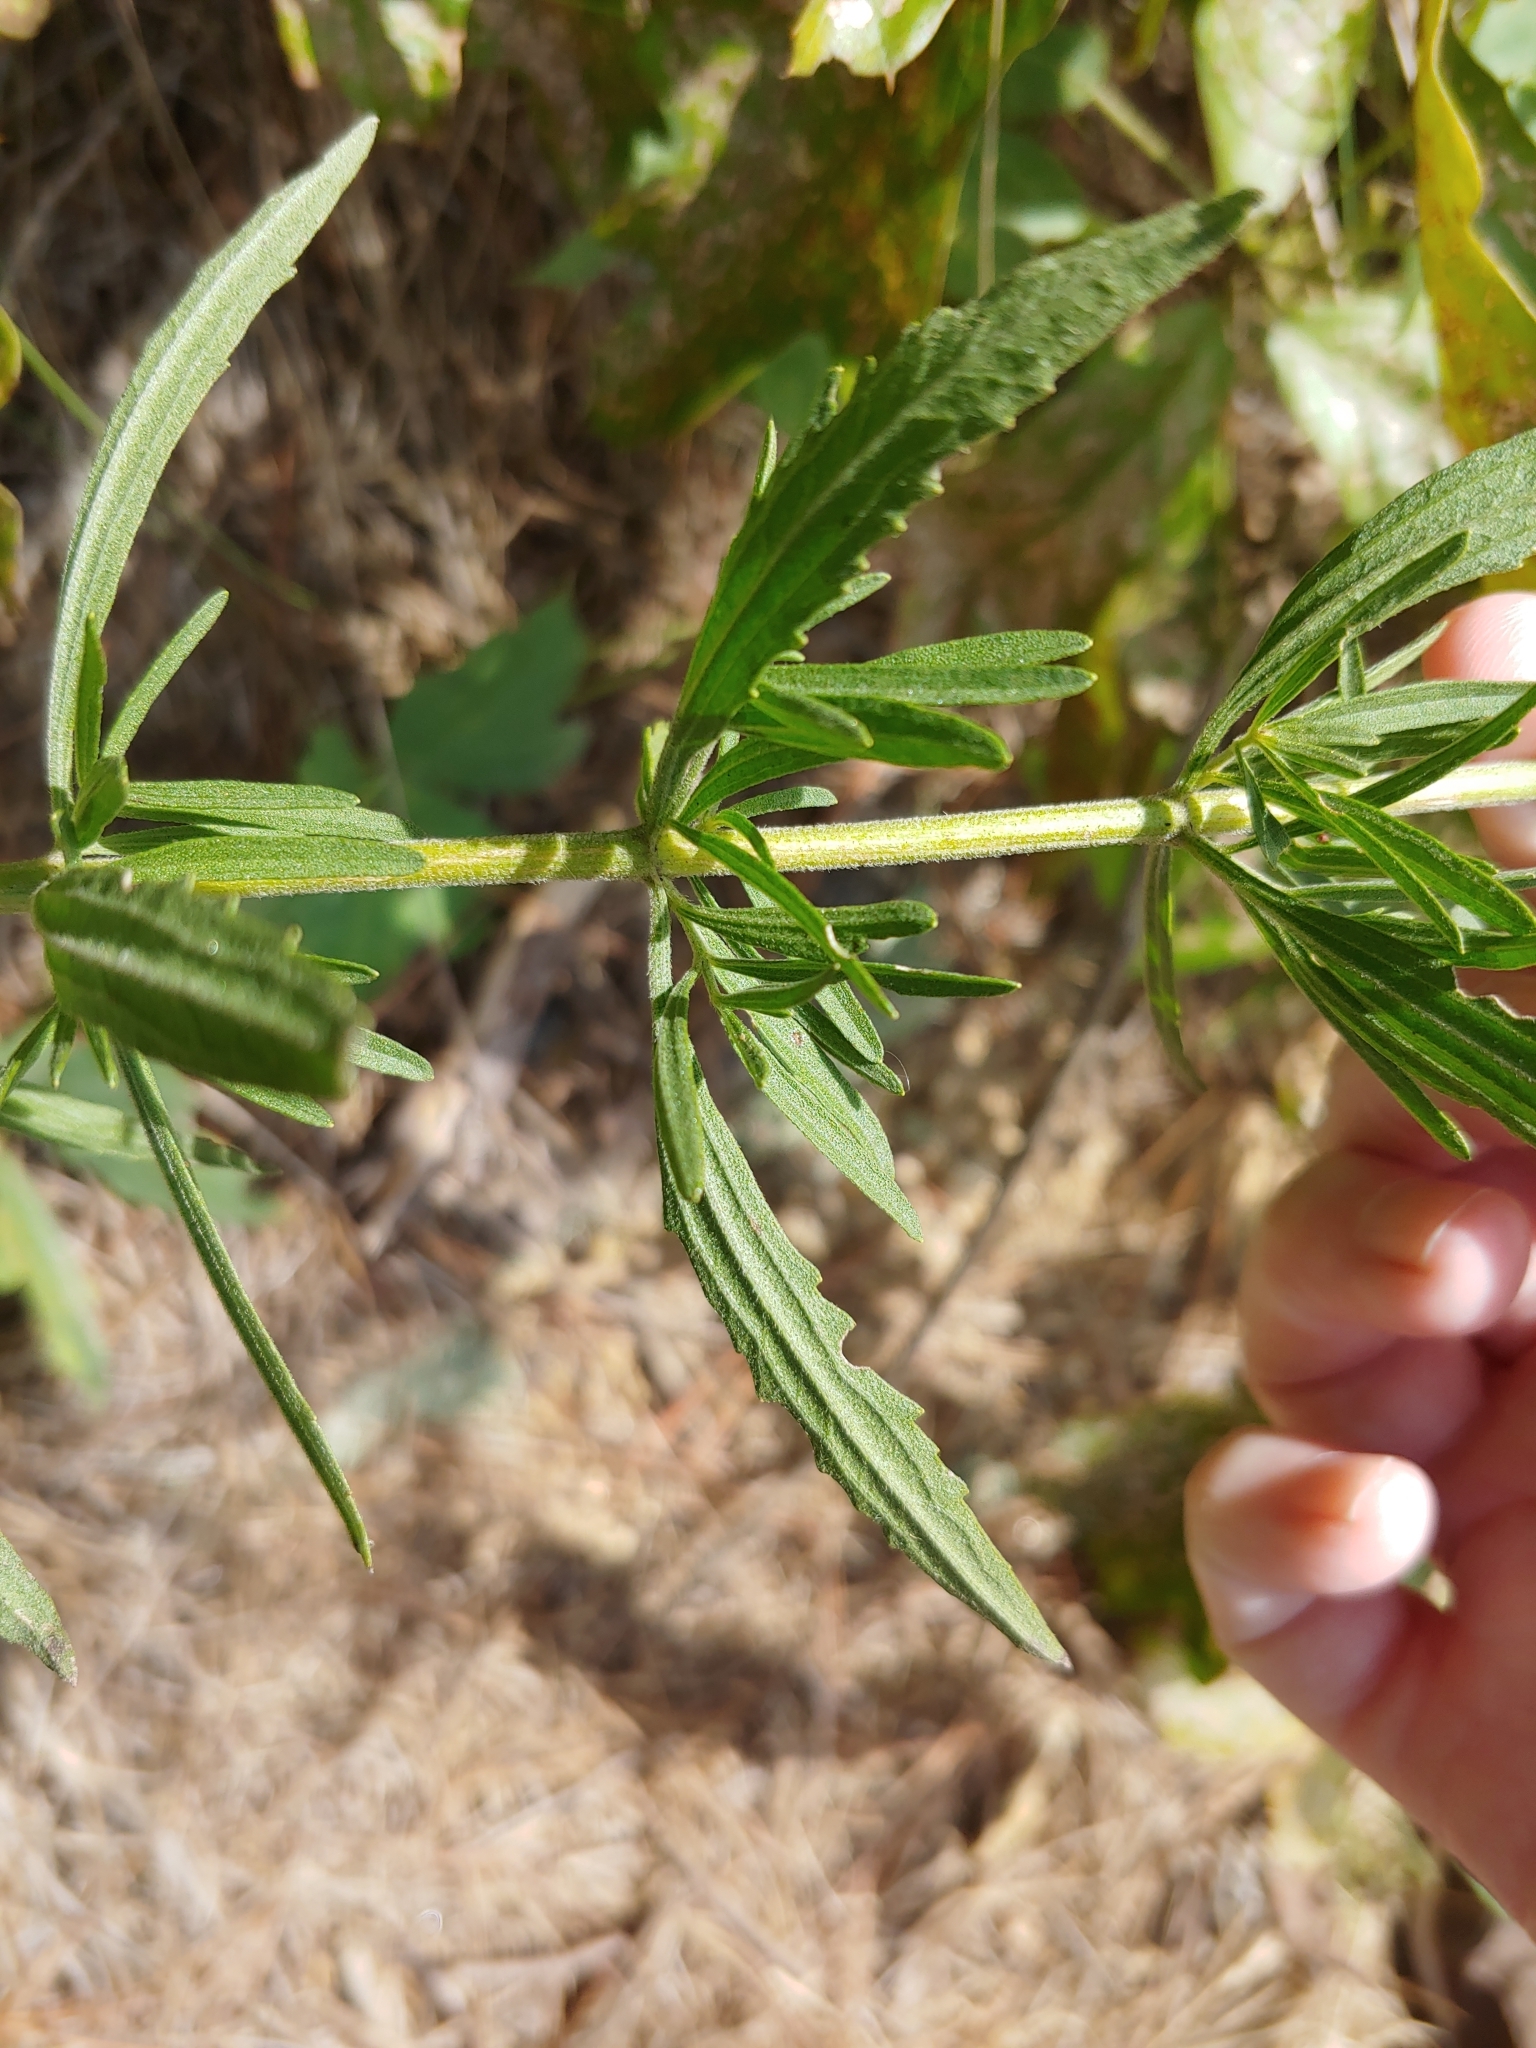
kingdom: Plantae
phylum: Tracheophyta
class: Magnoliopsida
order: Asterales
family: Asteraceae
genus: Eupatorium
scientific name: Eupatorium torreyanum
